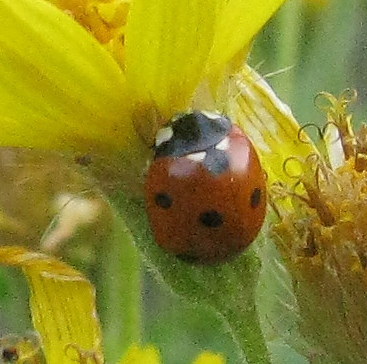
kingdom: Animalia
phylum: Arthropoda
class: Insecta
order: Coleoptera
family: Coccinellidae
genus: Coccinella
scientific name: Coccinella septempunctata
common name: Sevenspotted lady beetle
